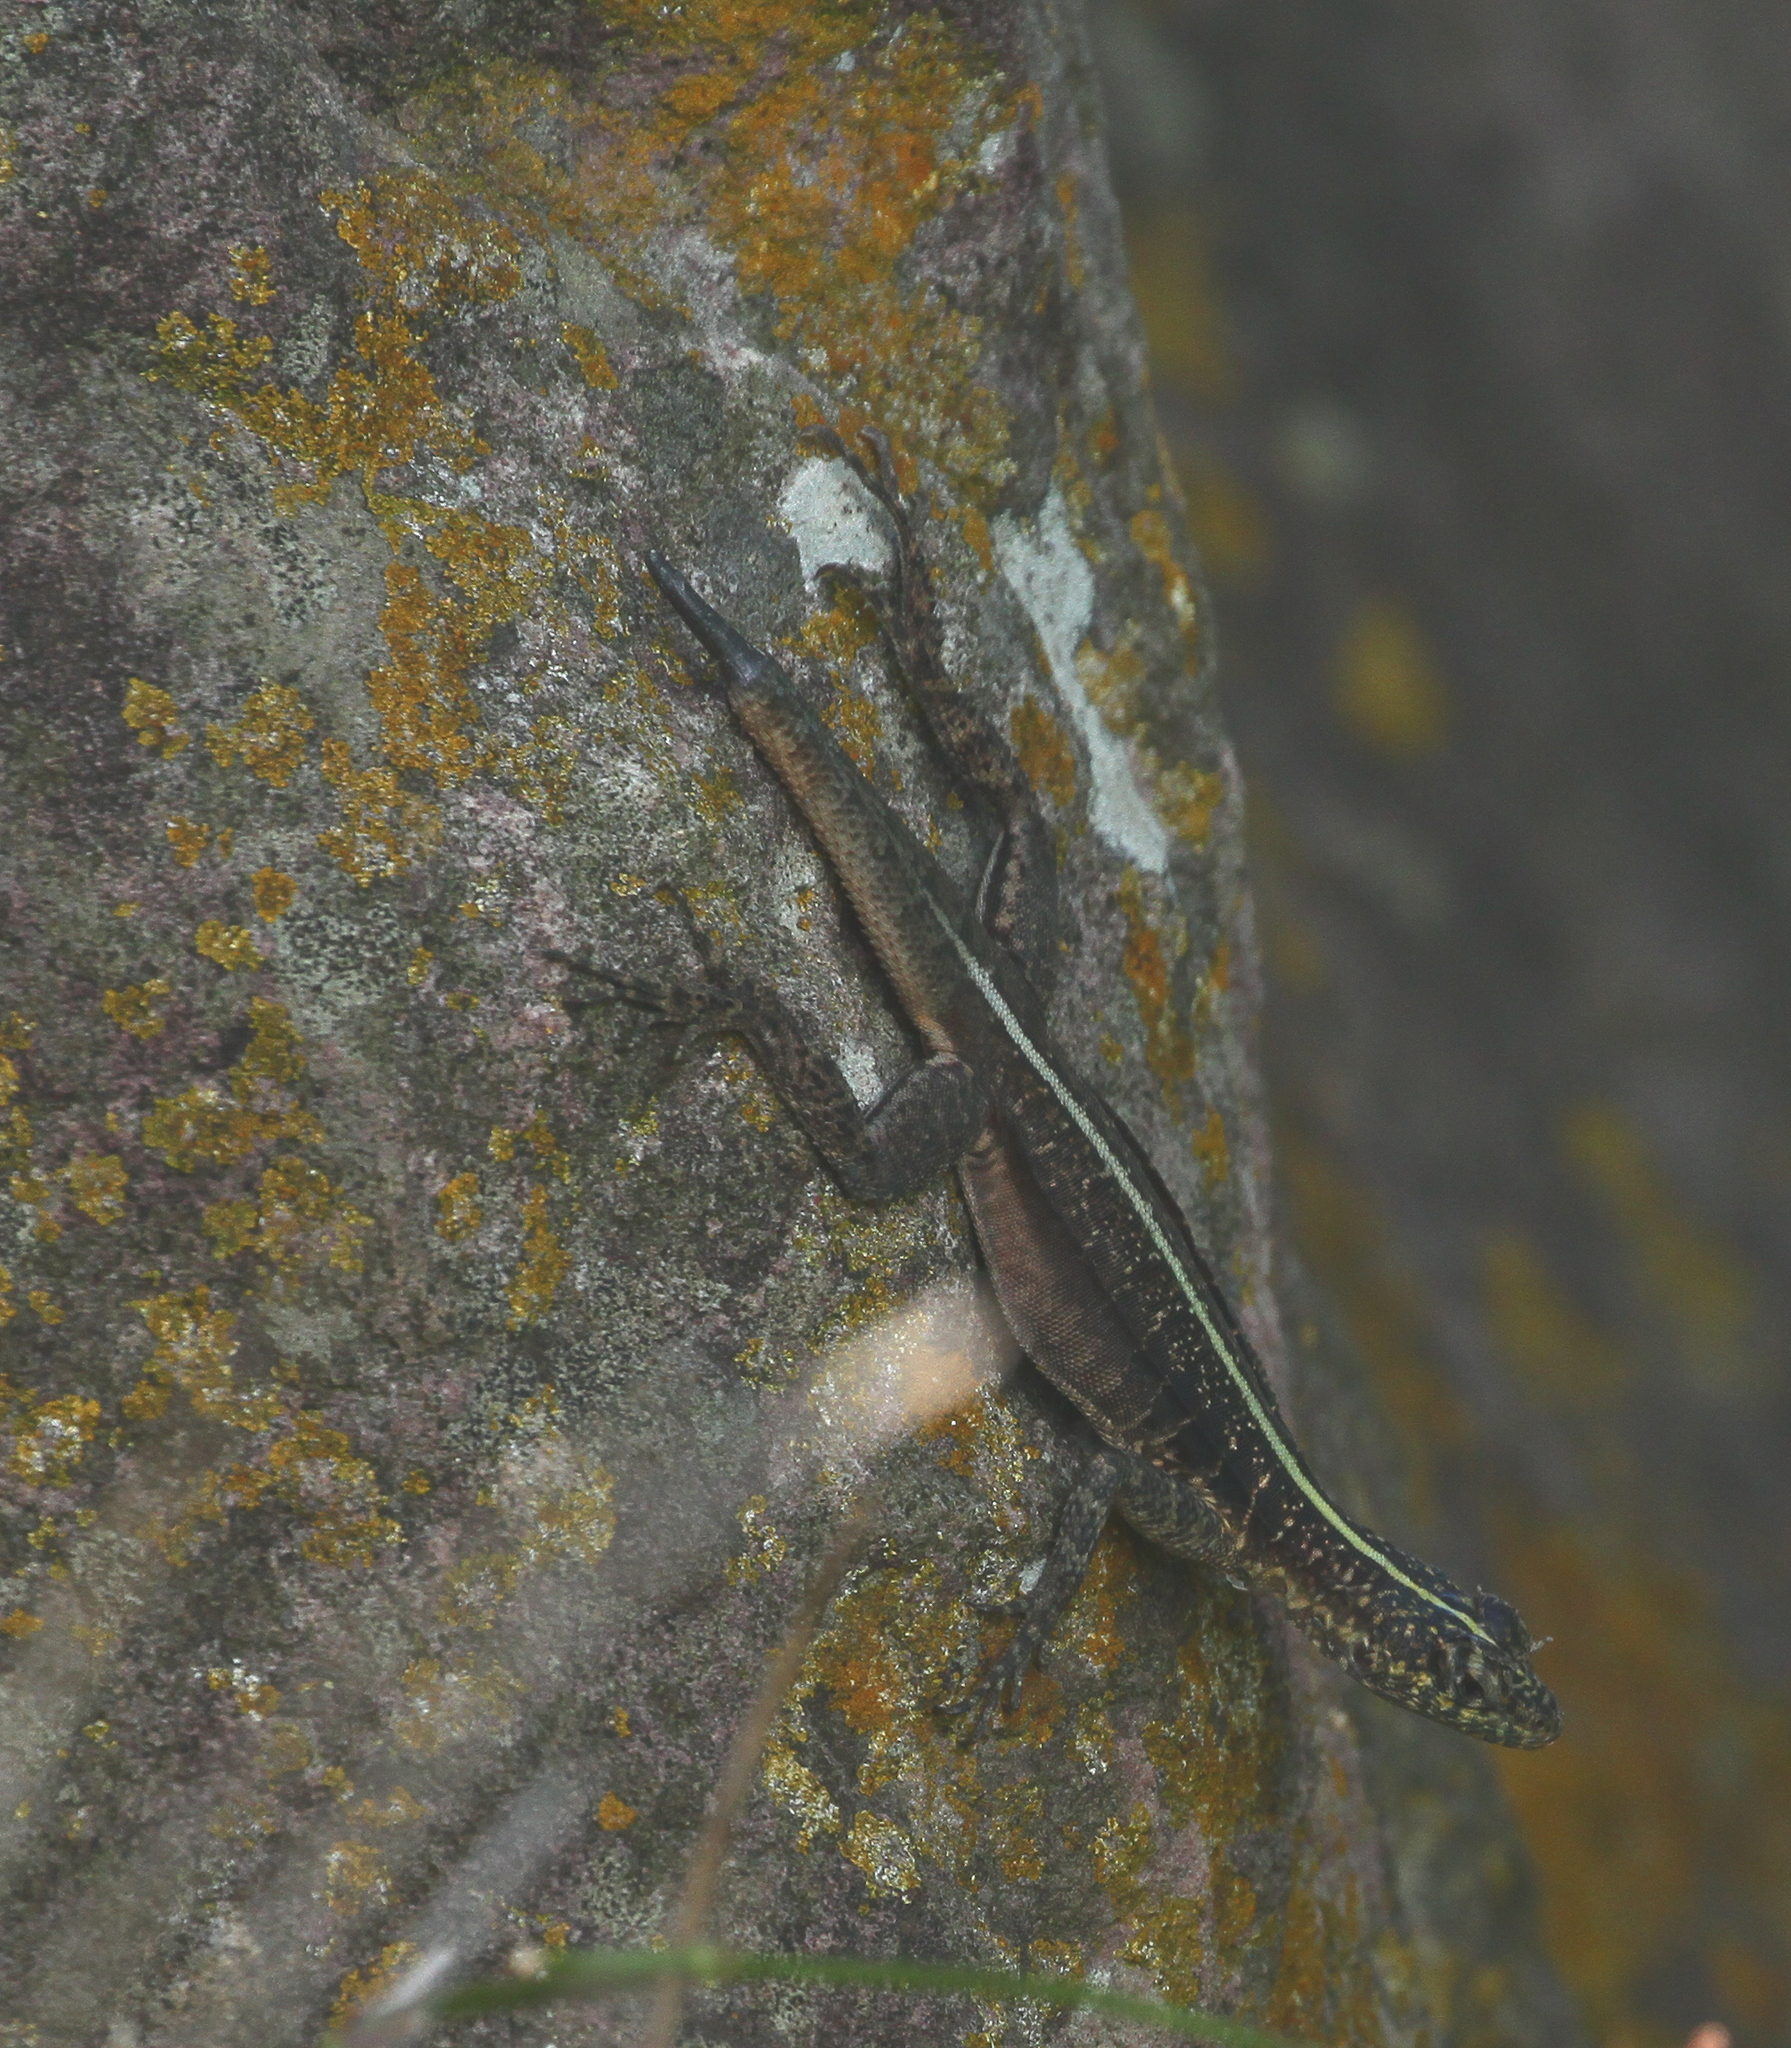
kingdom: Animalia
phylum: Chordata
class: Squamata
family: Tropiduridae
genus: Tropidurus
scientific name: Tropidurus semitaeniatus
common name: Striped lava lizard
